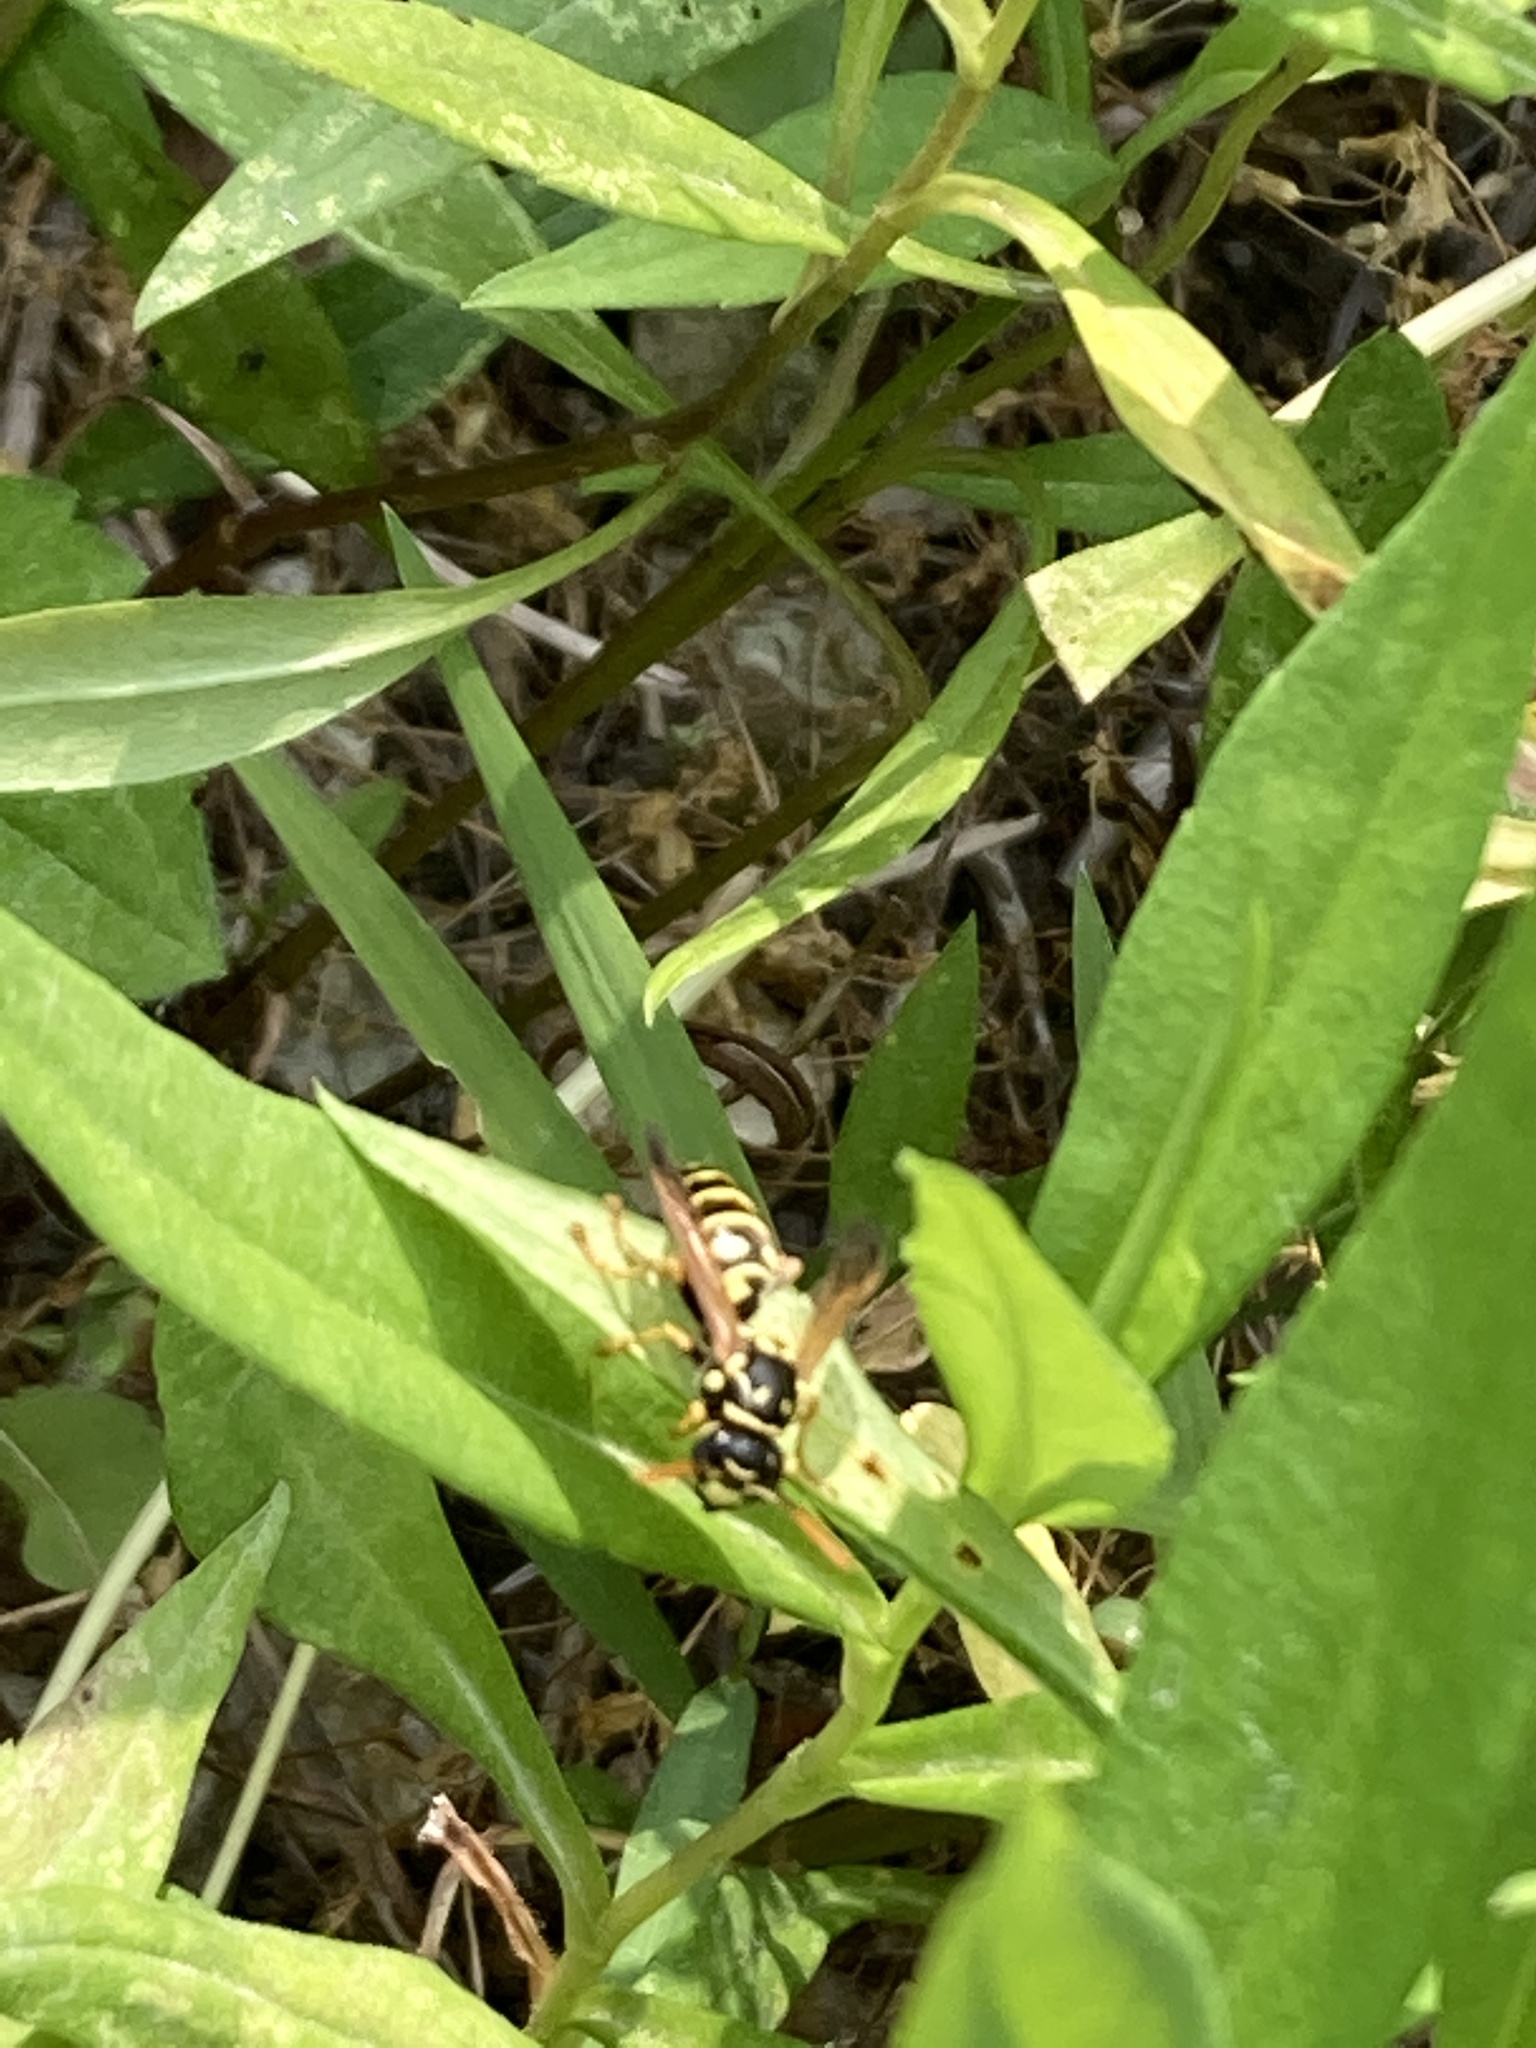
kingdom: Animalia
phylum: Arthropoda
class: Insecta
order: Hymenoptera
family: Eumenidae
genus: Polistes
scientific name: Polistes dominula
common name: Paper wasp
